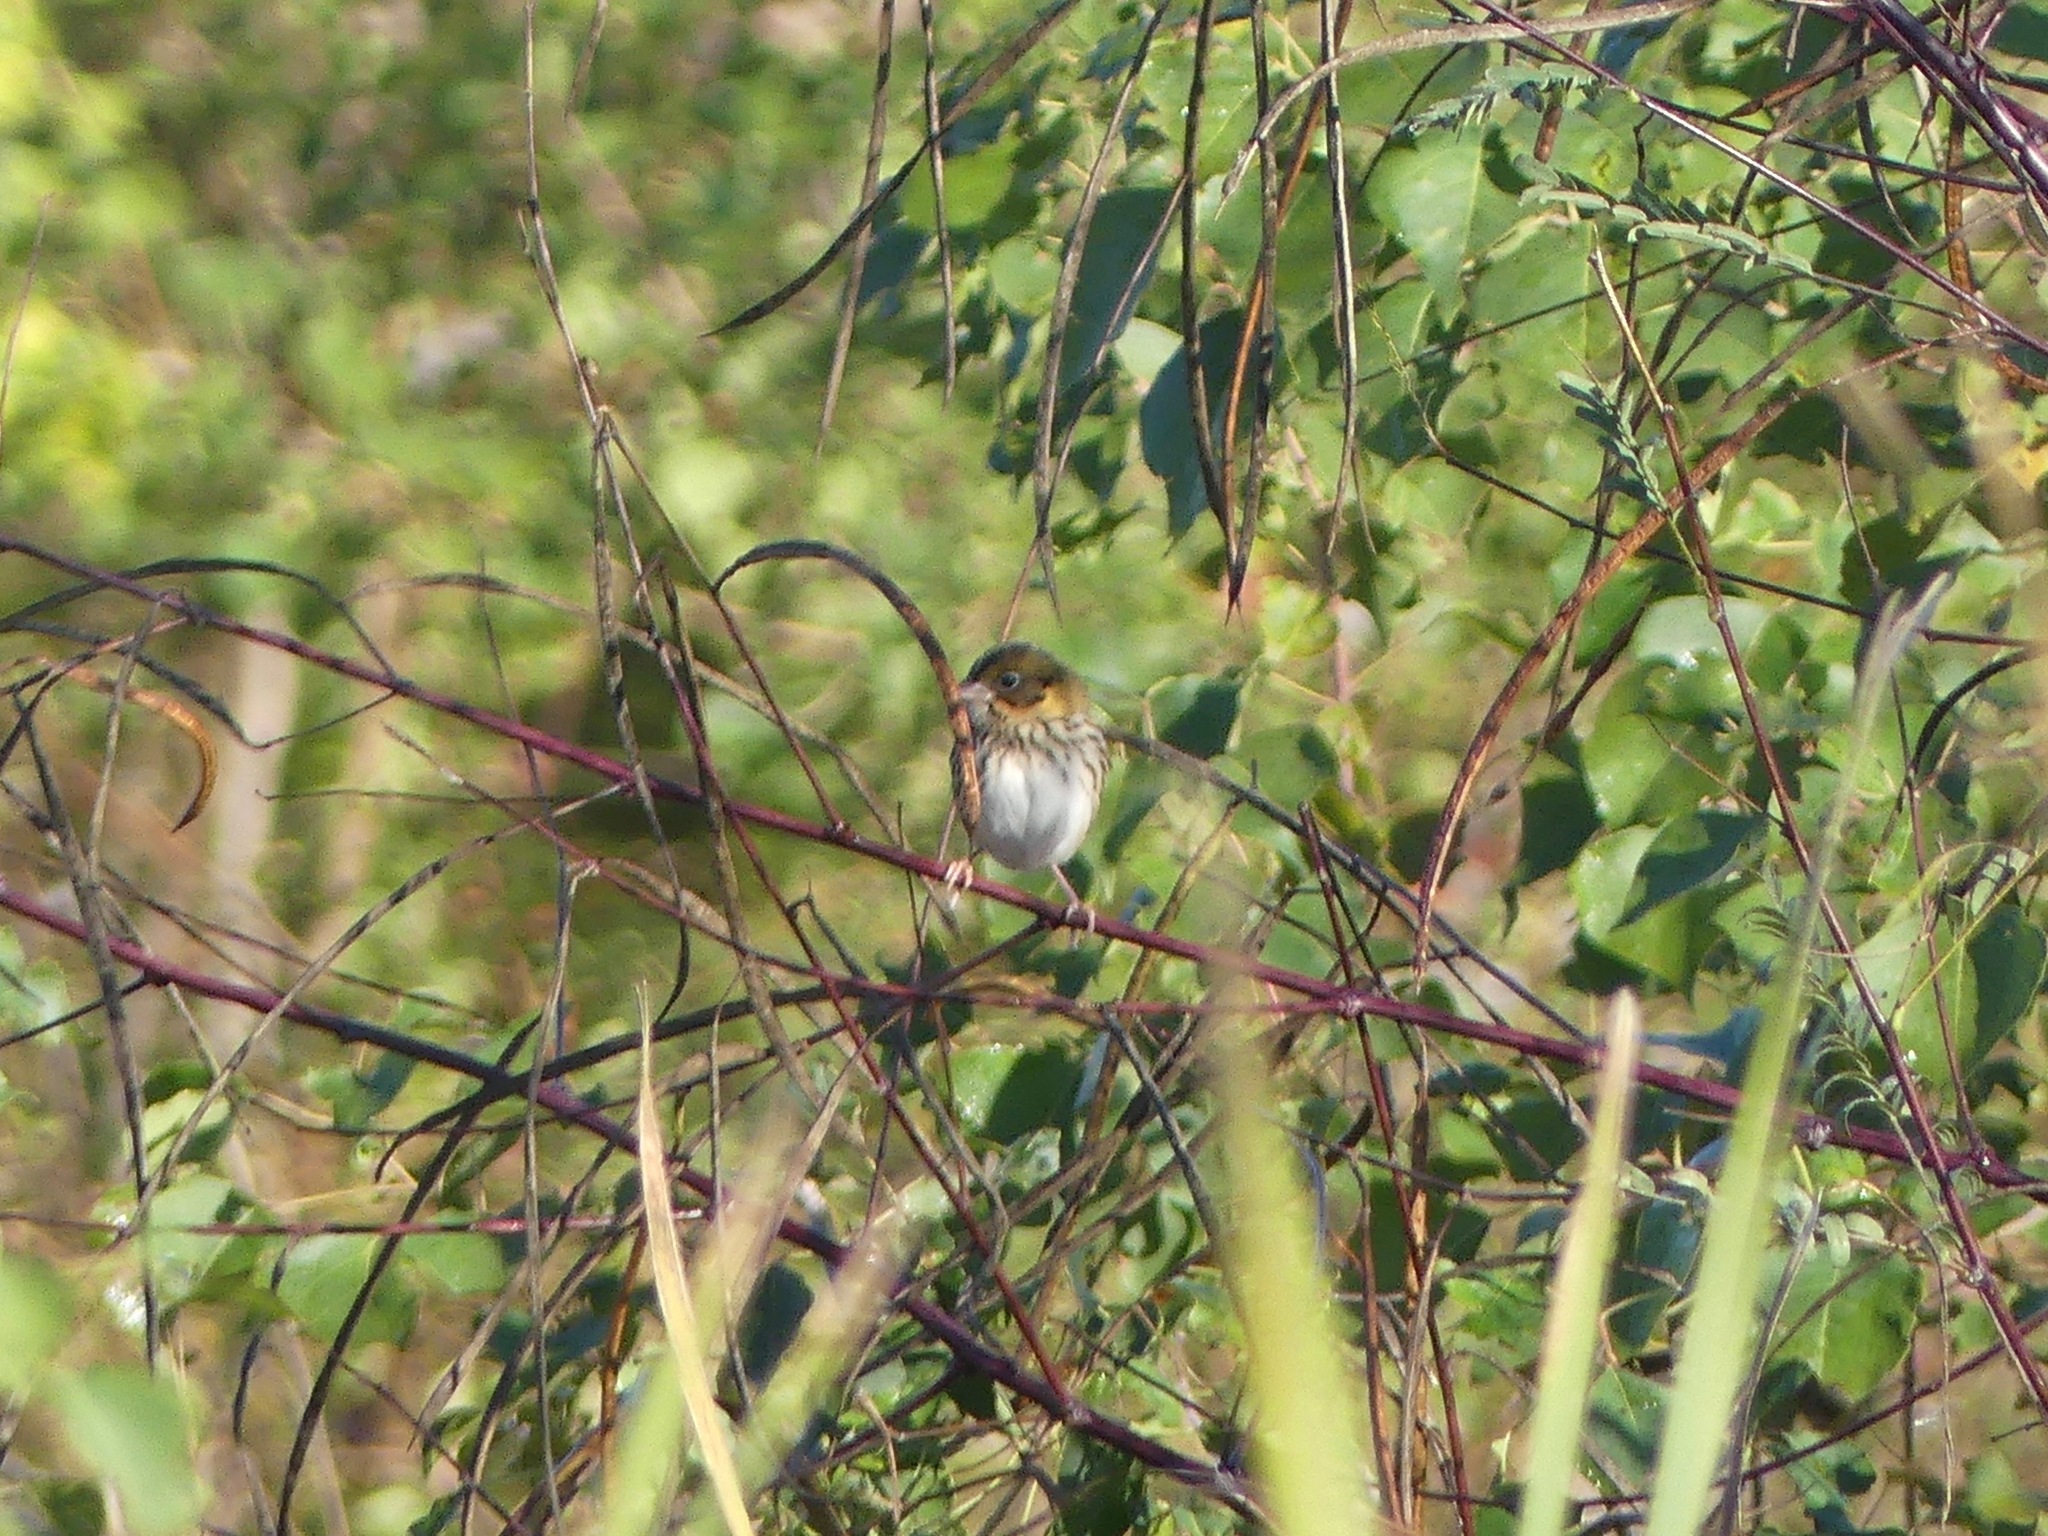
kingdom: Animalia
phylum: Chordata
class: Aves
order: Passeriformes
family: Passerellidae
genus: Centronyx
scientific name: Centronyx henslowii
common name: Henslow's sparrow
